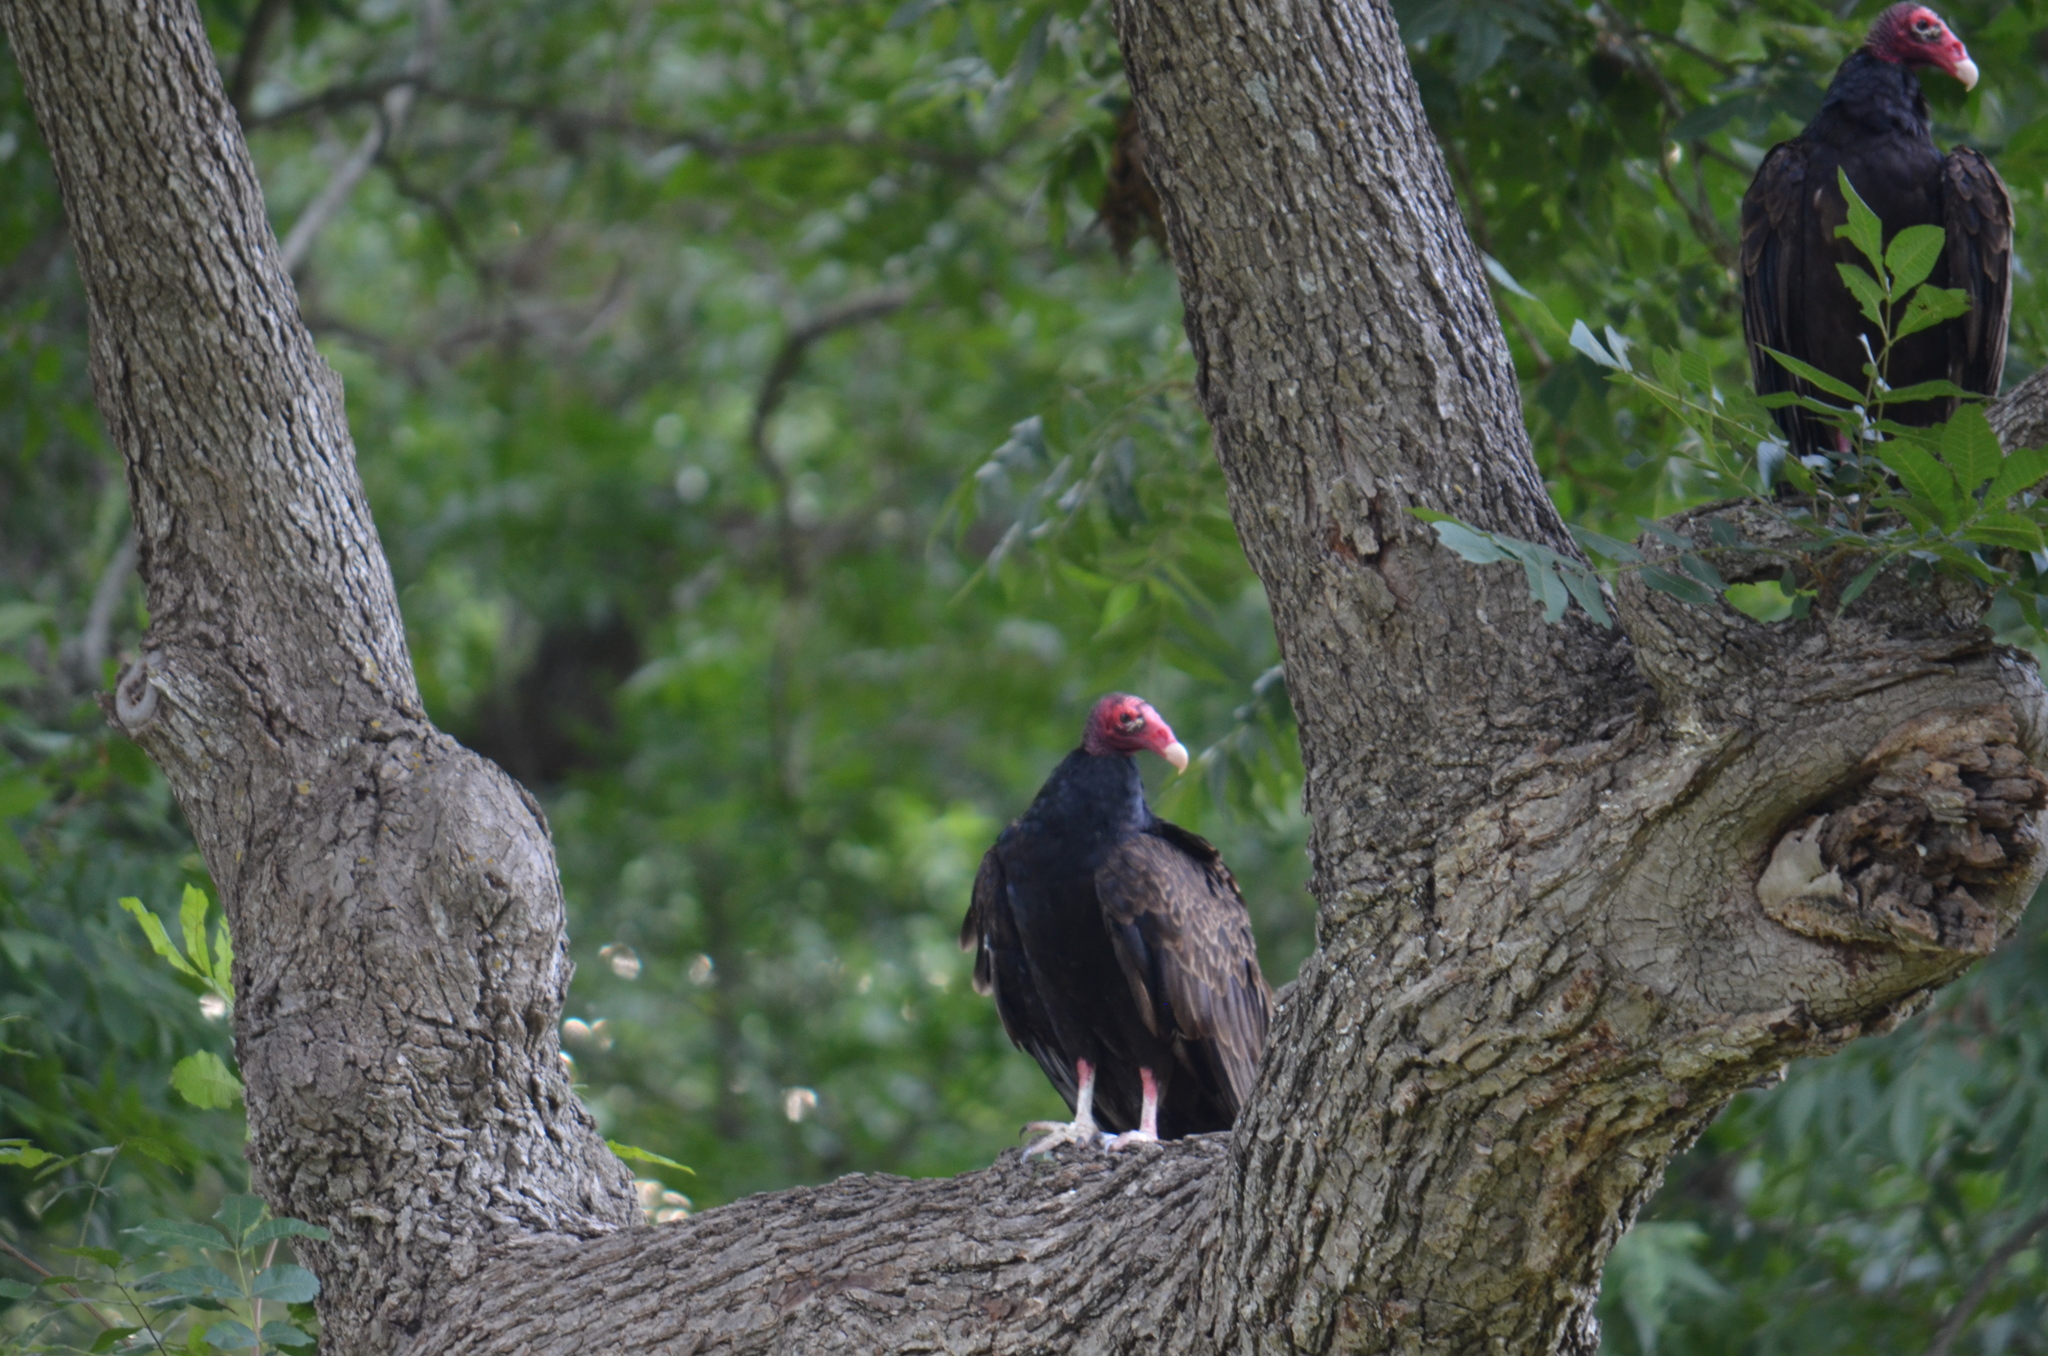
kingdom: Animalia
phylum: Chordata
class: Aves
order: Accipitriformes
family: Cathartidae
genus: Cathartes
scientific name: Cathartes aura
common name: Turkey vulture
